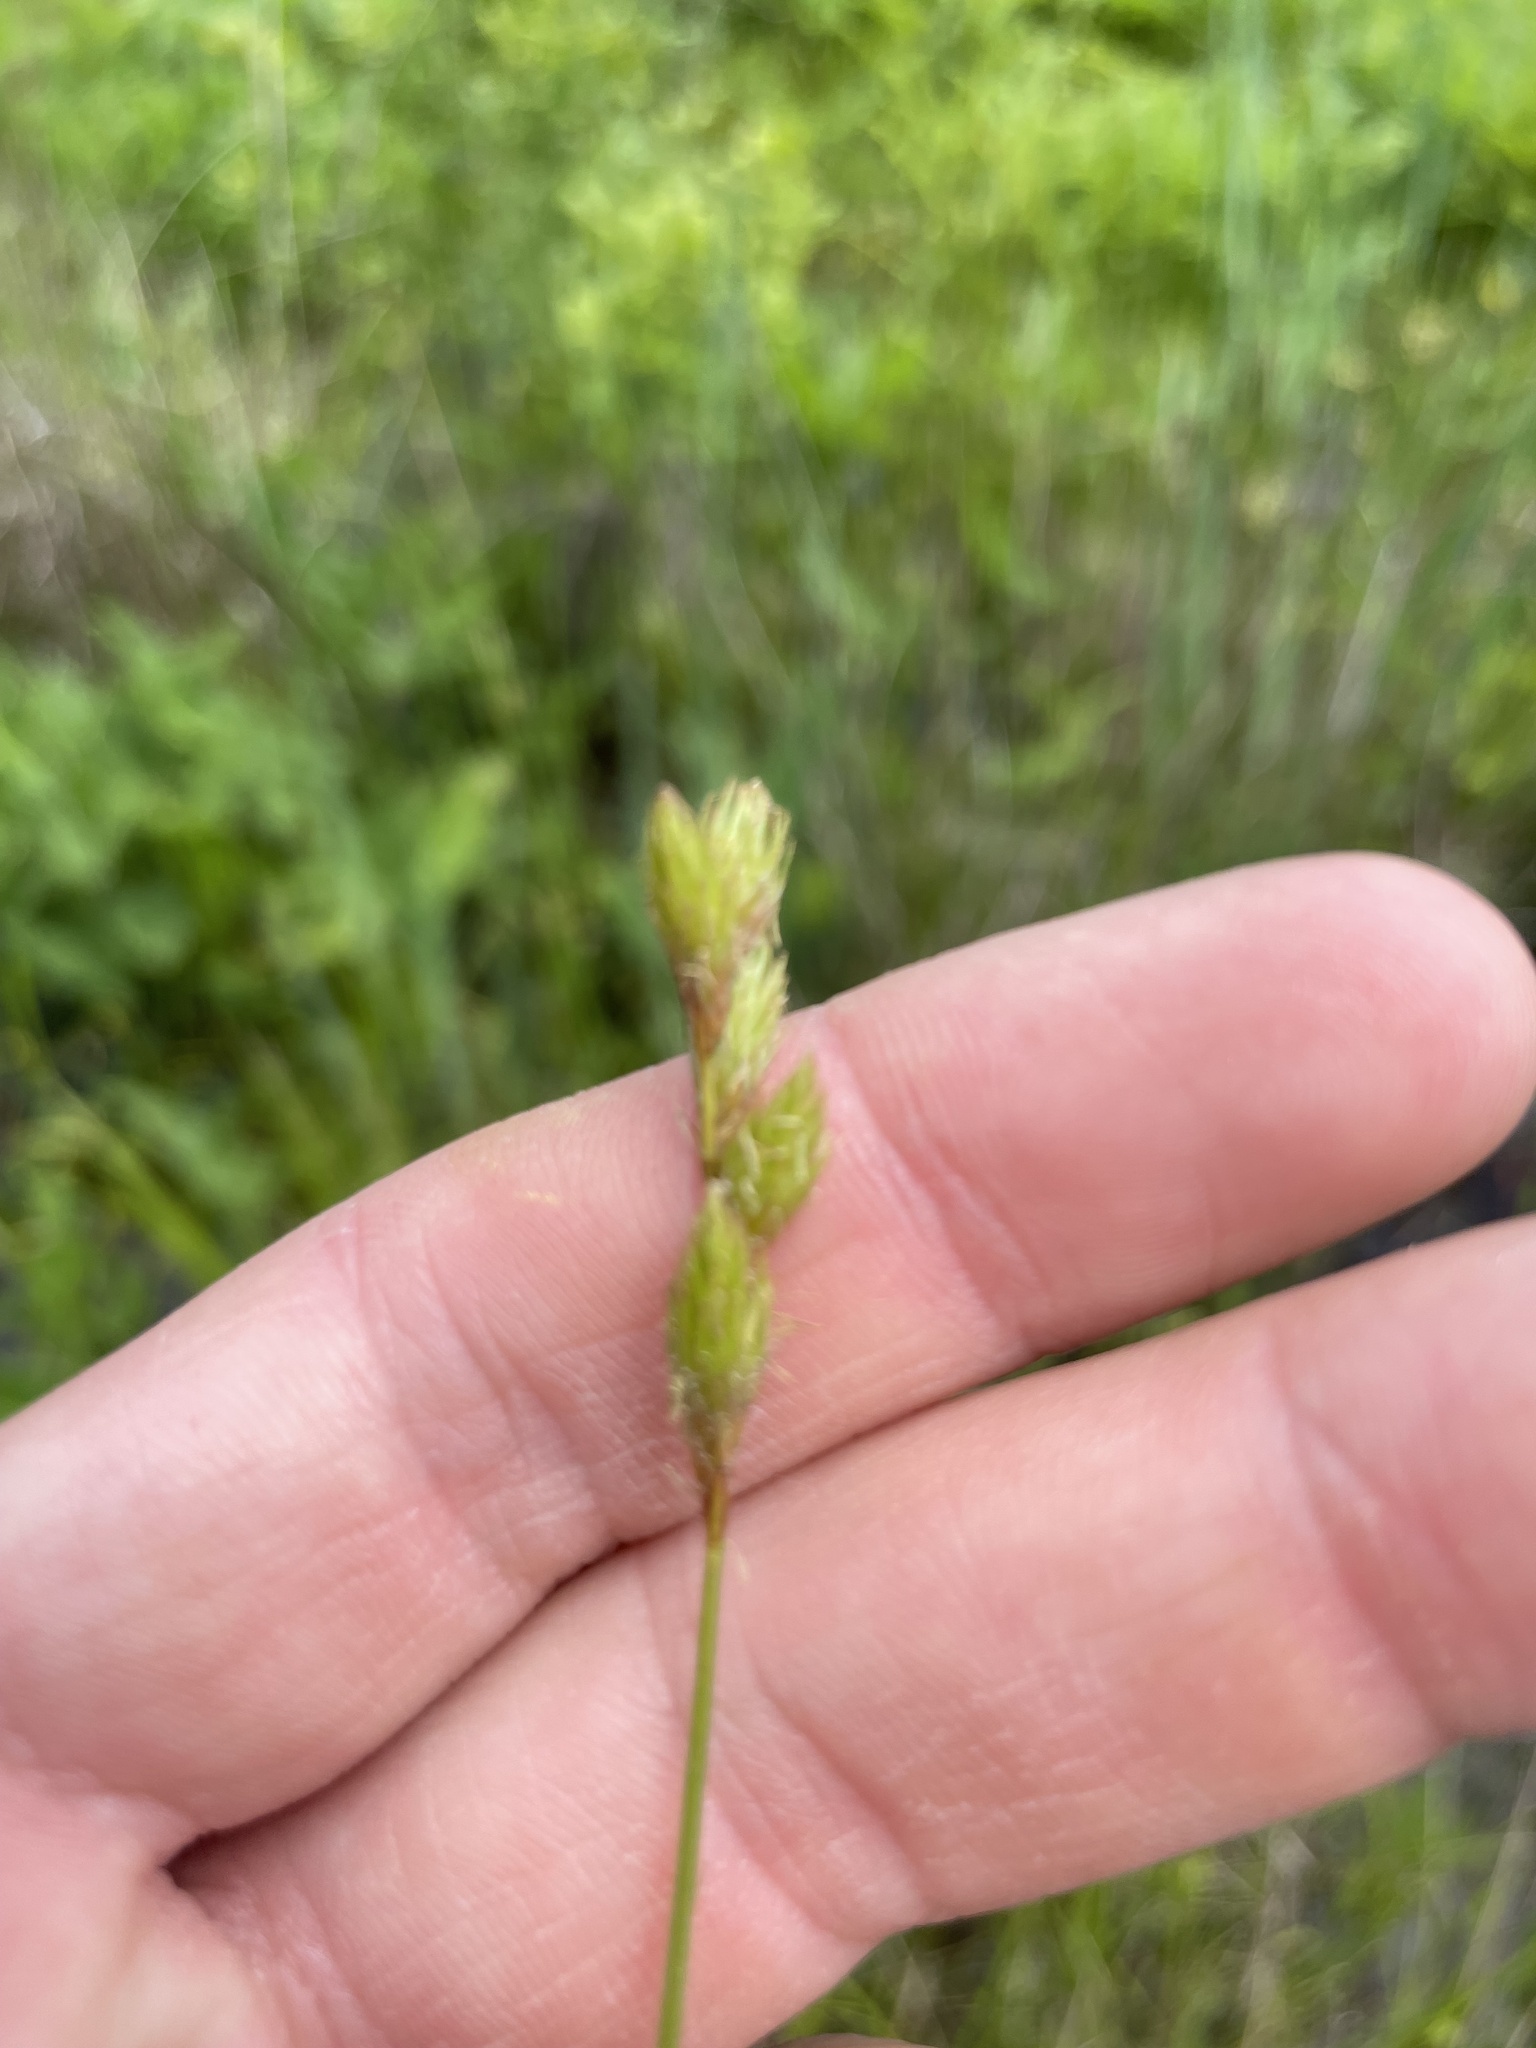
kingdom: Plantae
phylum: Tracheophyta
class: Liliopsida
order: Poales
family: Cyperaceae
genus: Carex
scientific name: Carex scoparia
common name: Broom sedge
